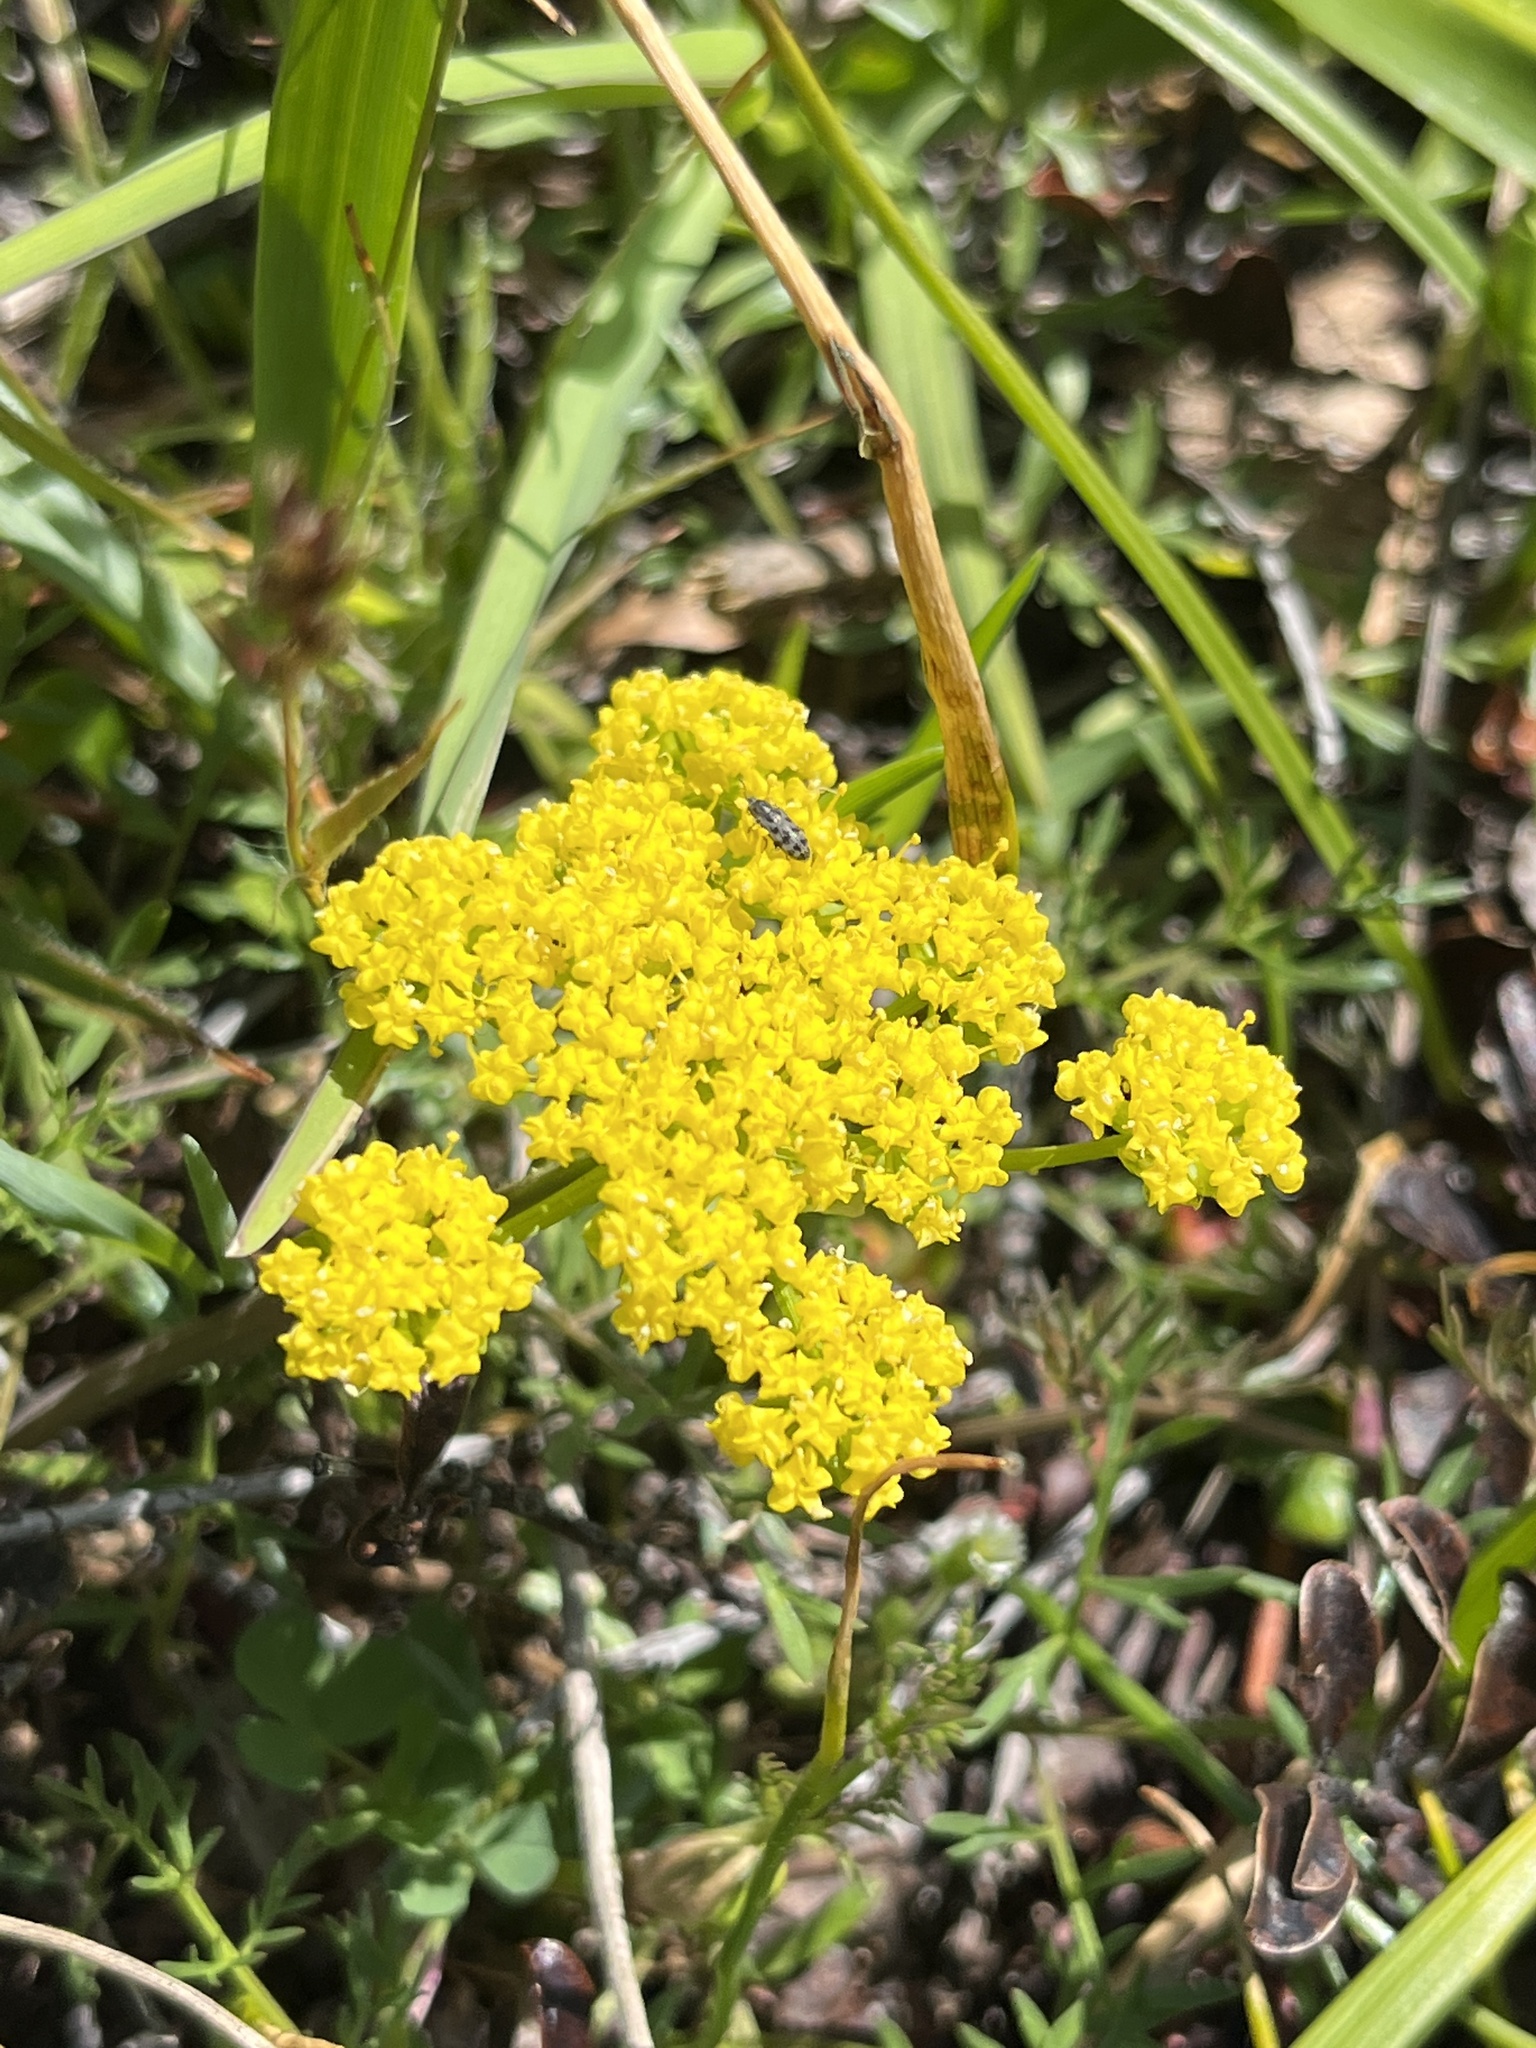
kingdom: Plantae
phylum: Tracheophyta
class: Magnoliopsida
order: Apiales
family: Apiaceae
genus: Lomatium
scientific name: Lomatium utriculatum
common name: Fine-leaf desert-parsley
